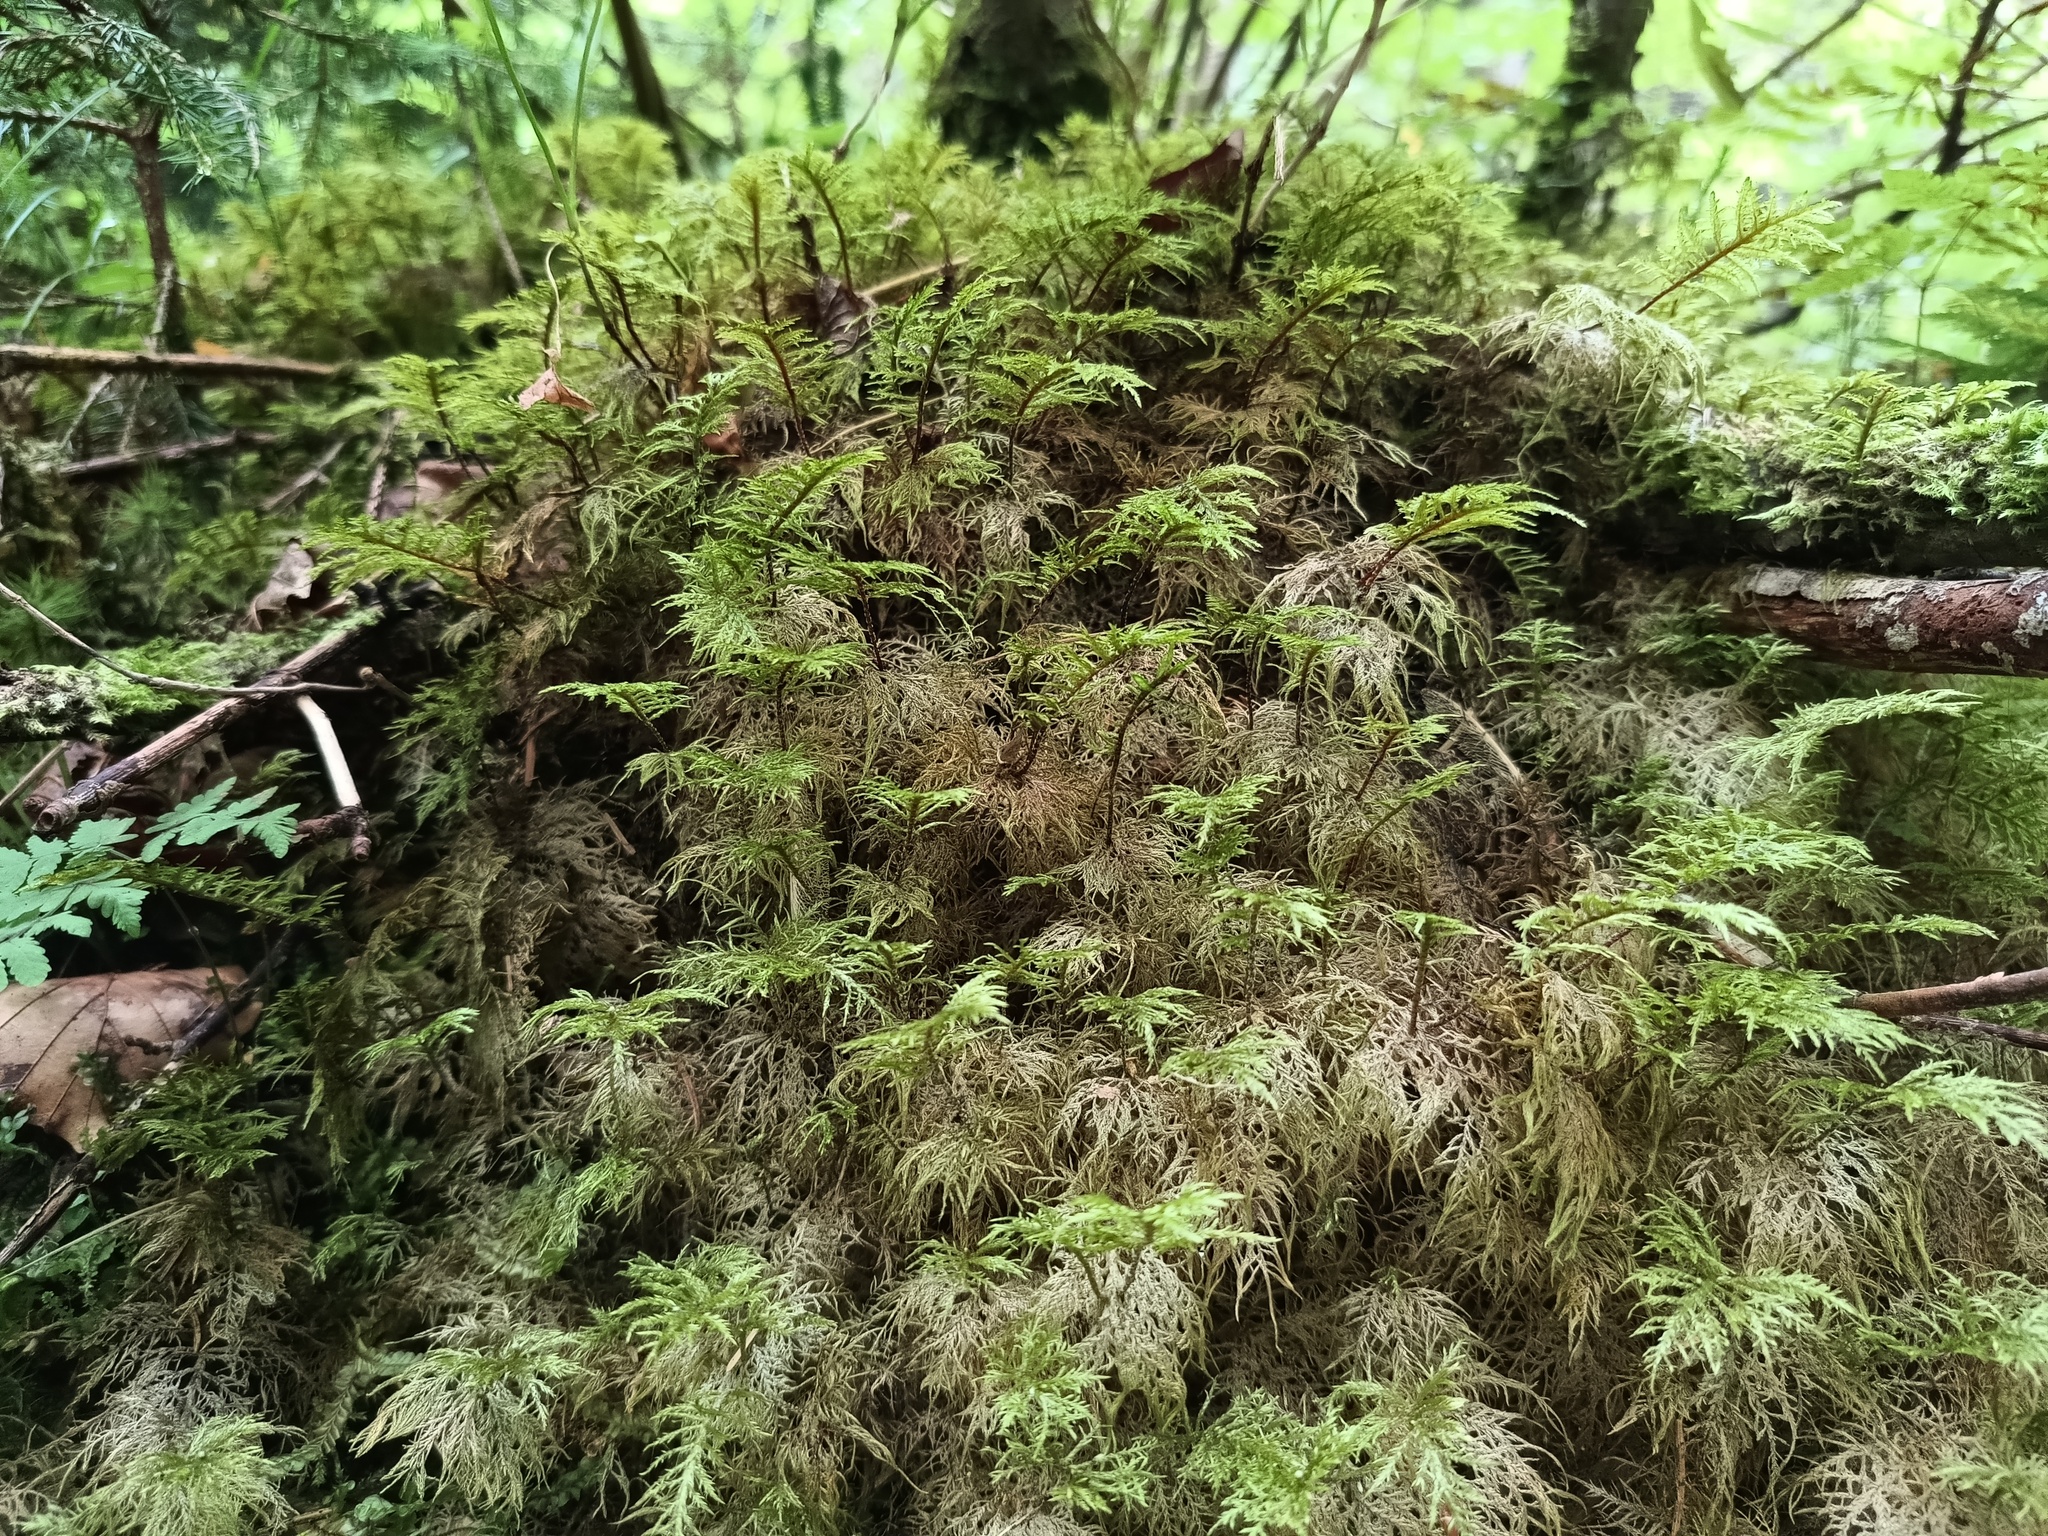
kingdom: Plantae
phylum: Bryophyta
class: Bryopsida
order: Hypnales
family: Hylocomiaceae
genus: Hylocomium
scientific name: Hylocomium splendens
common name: Stairstep moss
